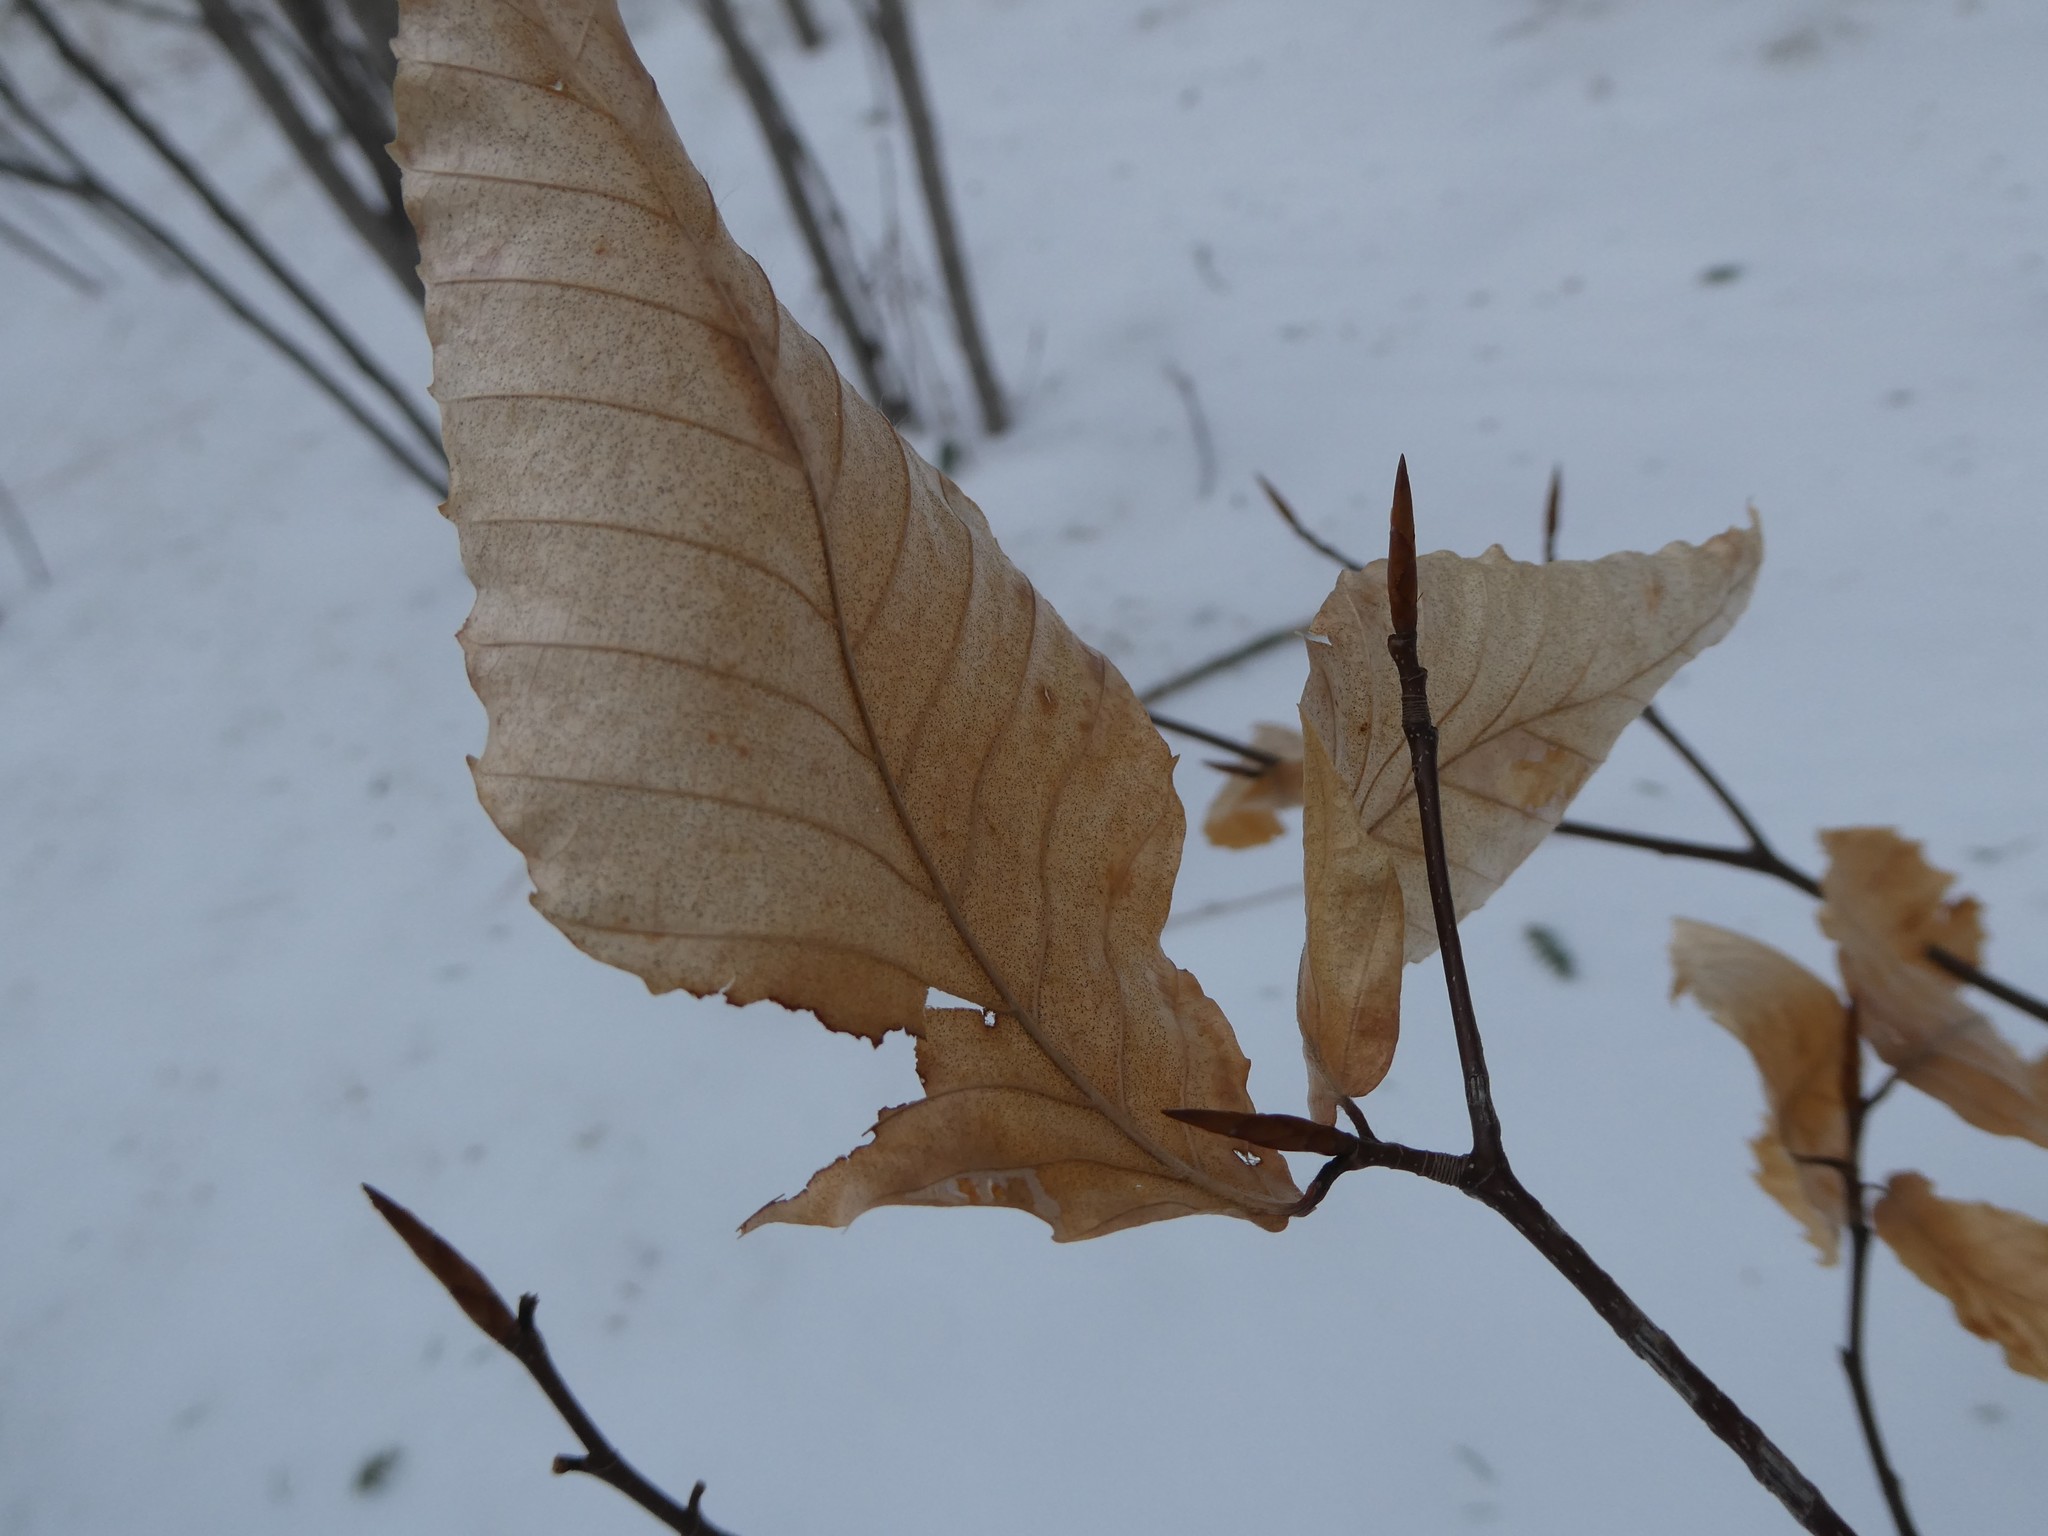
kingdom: Plantae
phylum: Tracheophyta
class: Magnoliopsida
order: Fagales
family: Fagaceae
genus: Fagus
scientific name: Fagus grandifolia
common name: American beech
